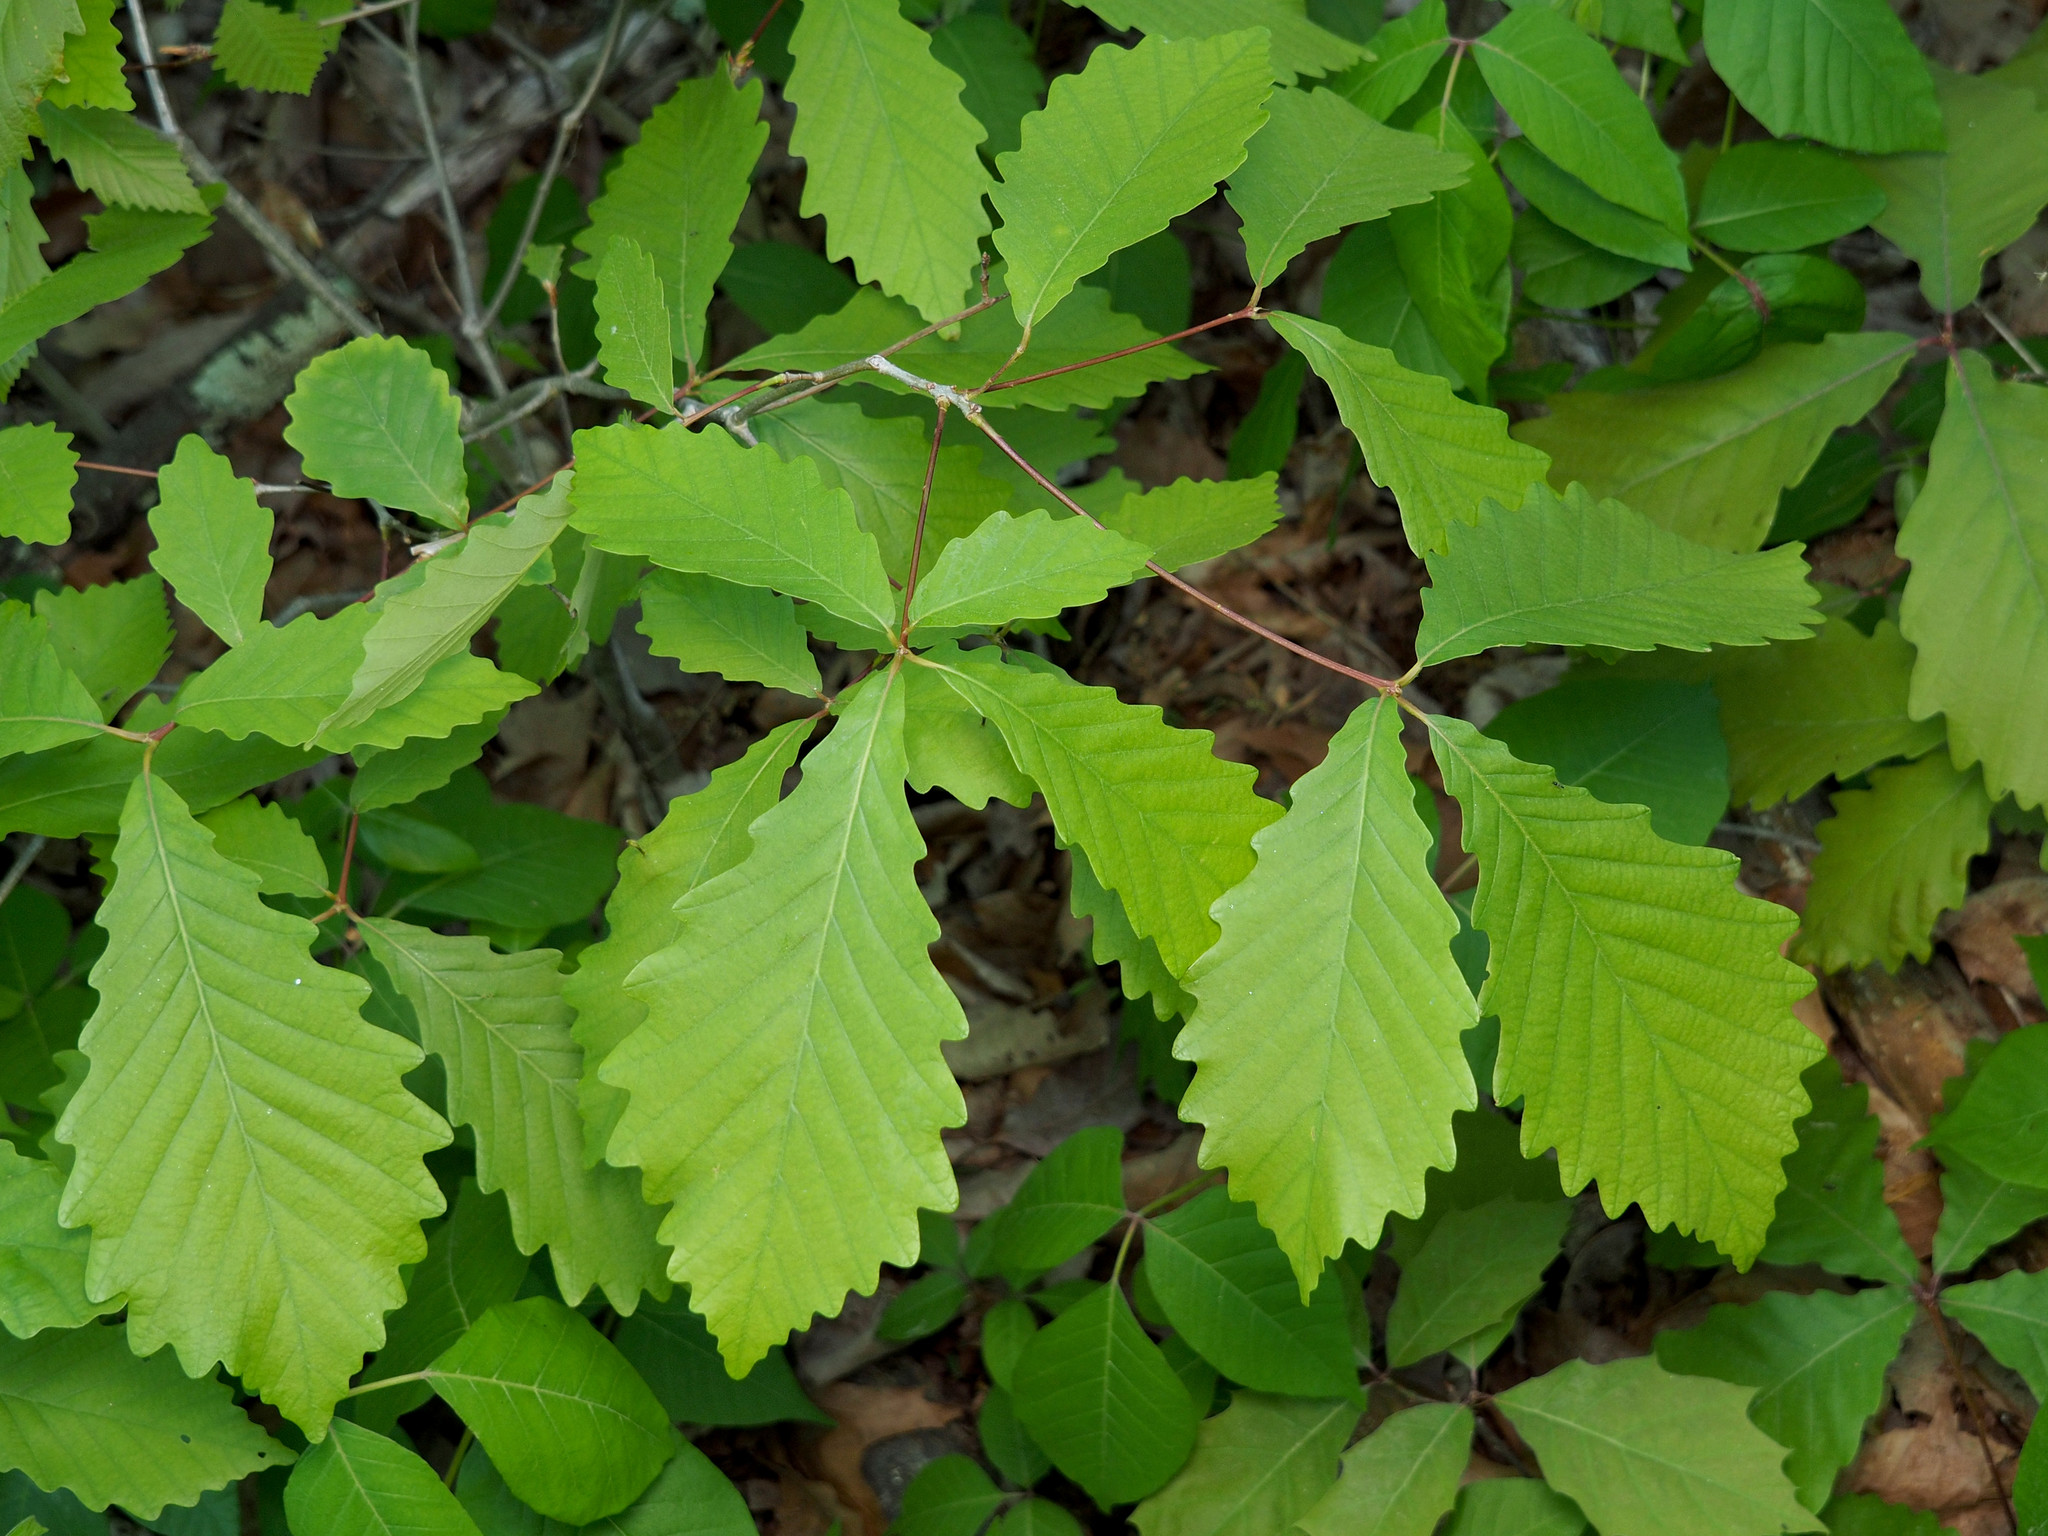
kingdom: Plantae
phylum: Tracheophyta
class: Magnoliopsida
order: Fagales
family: Fagaceae
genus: Quercus
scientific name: Quercus michauxii
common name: Swamp chestnut oak
